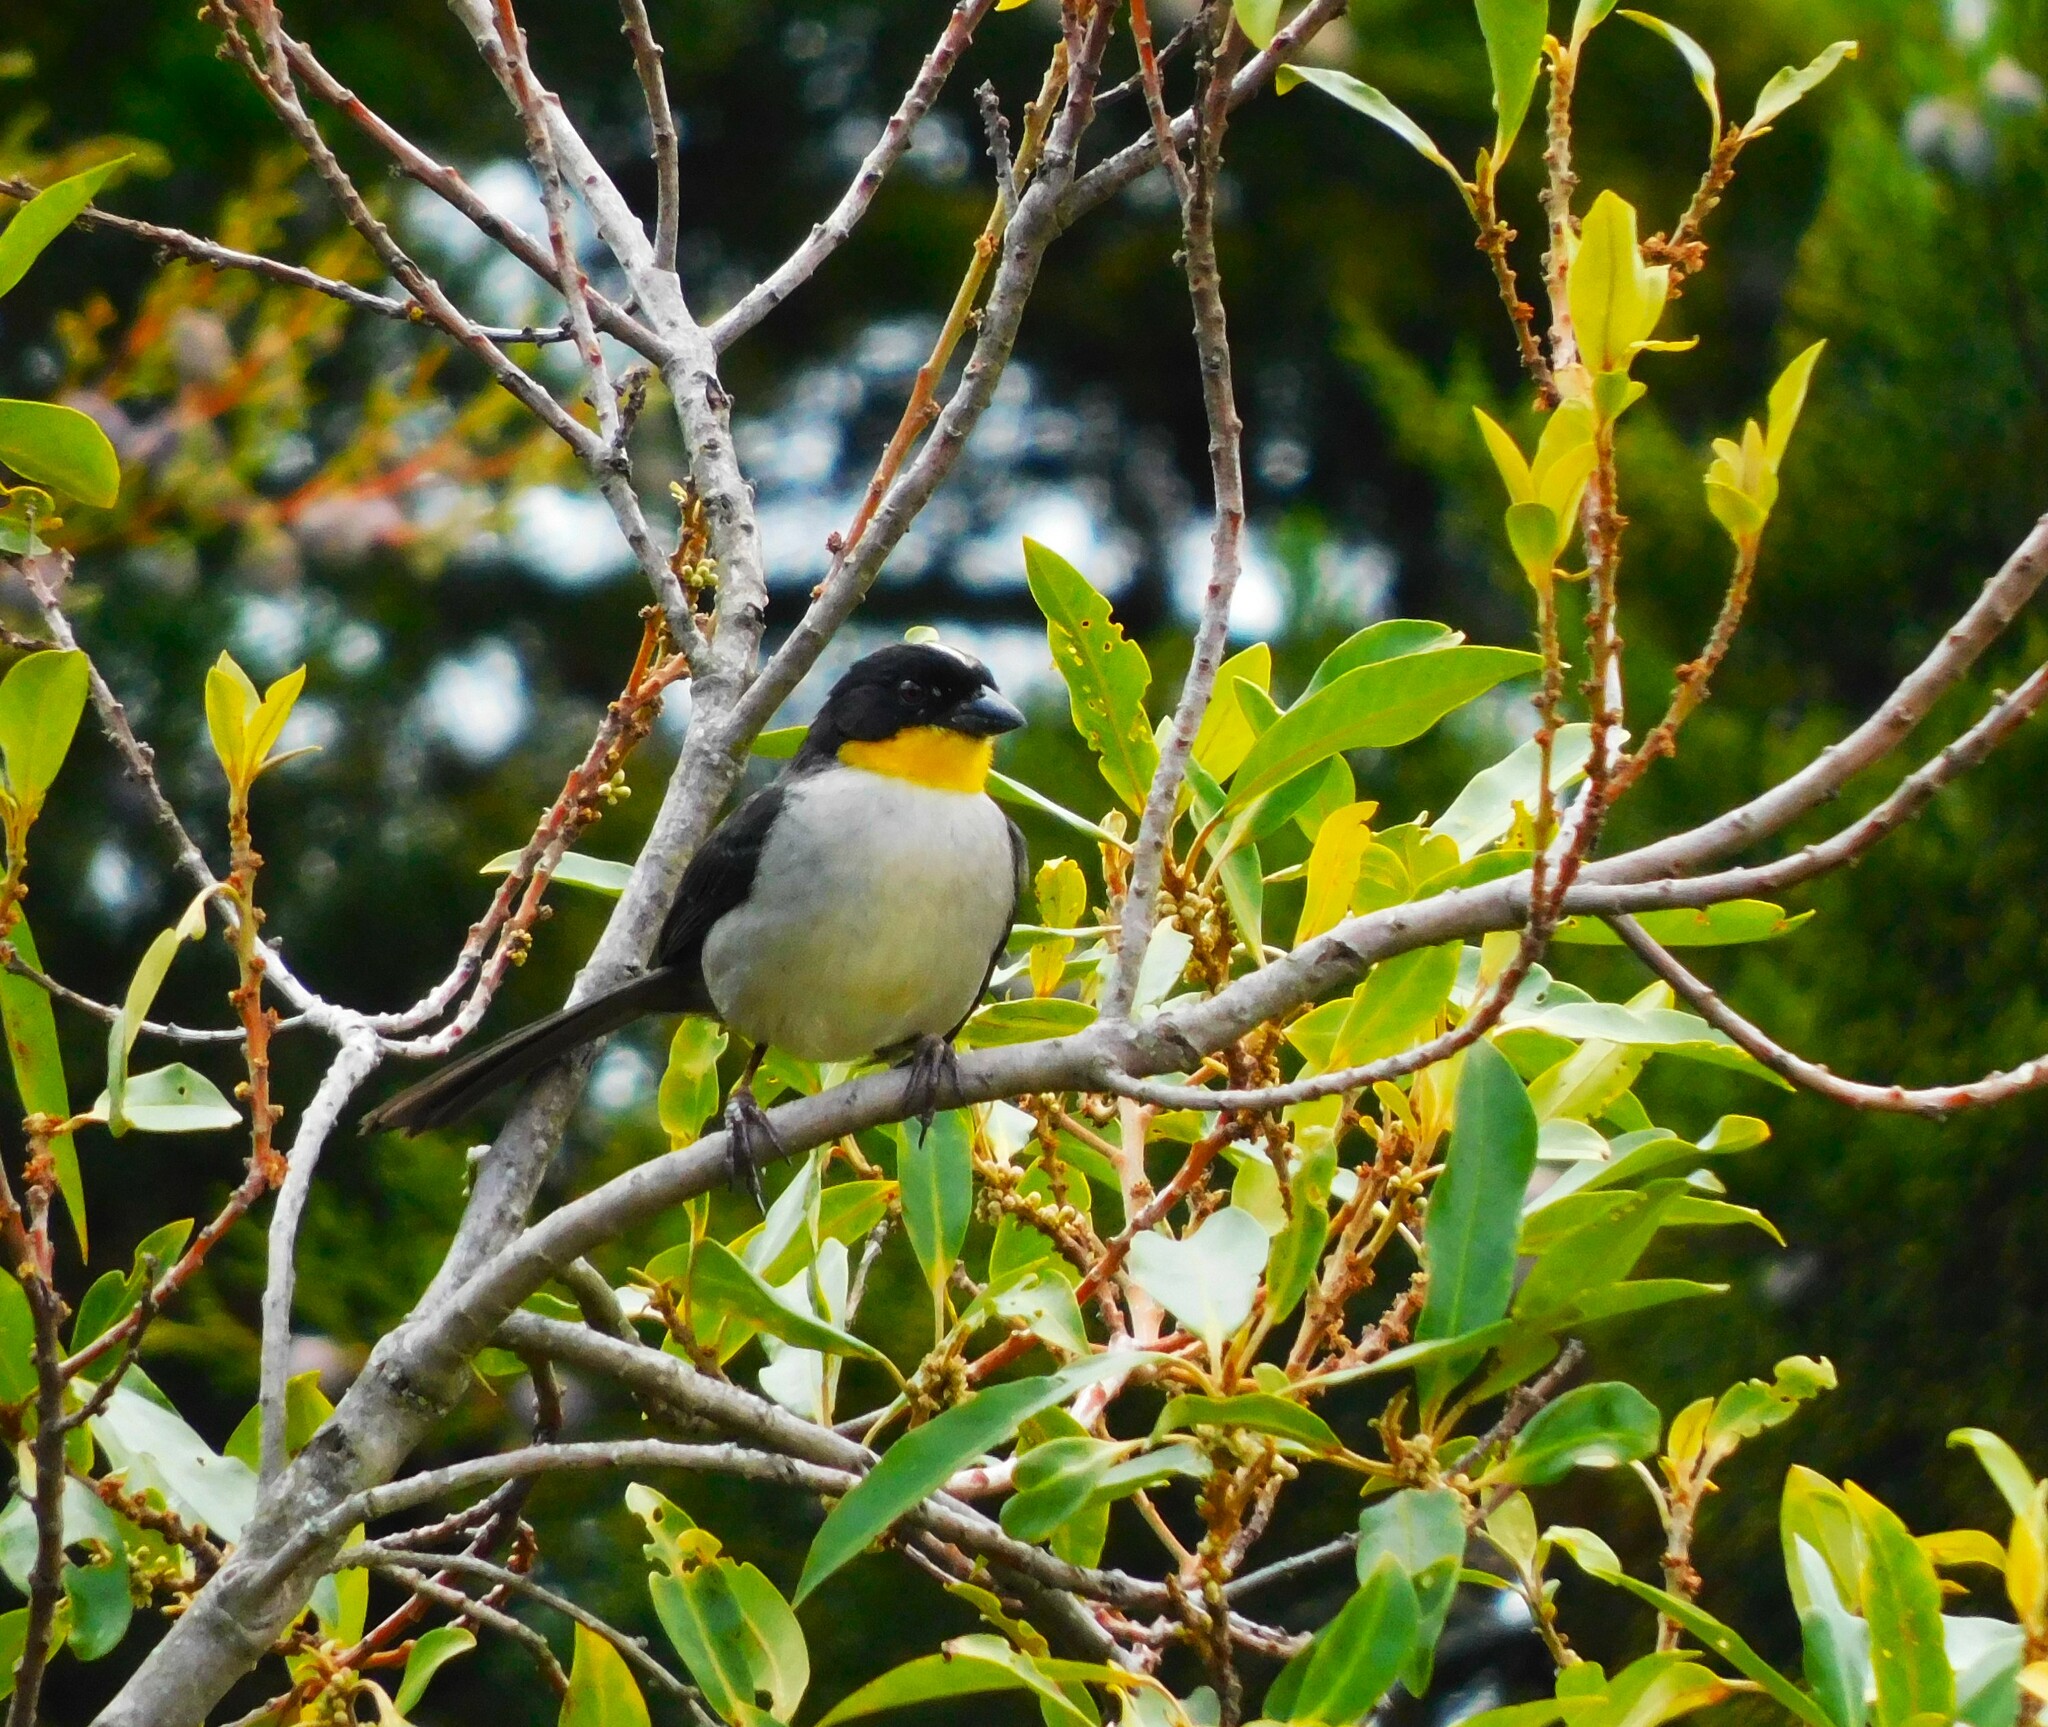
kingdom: Animalia
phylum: Chordata
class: Aves
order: Passeriformes
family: Passerellidae
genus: Atlapetes
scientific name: Atlapetes albinucha
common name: White-naped brush-finch
